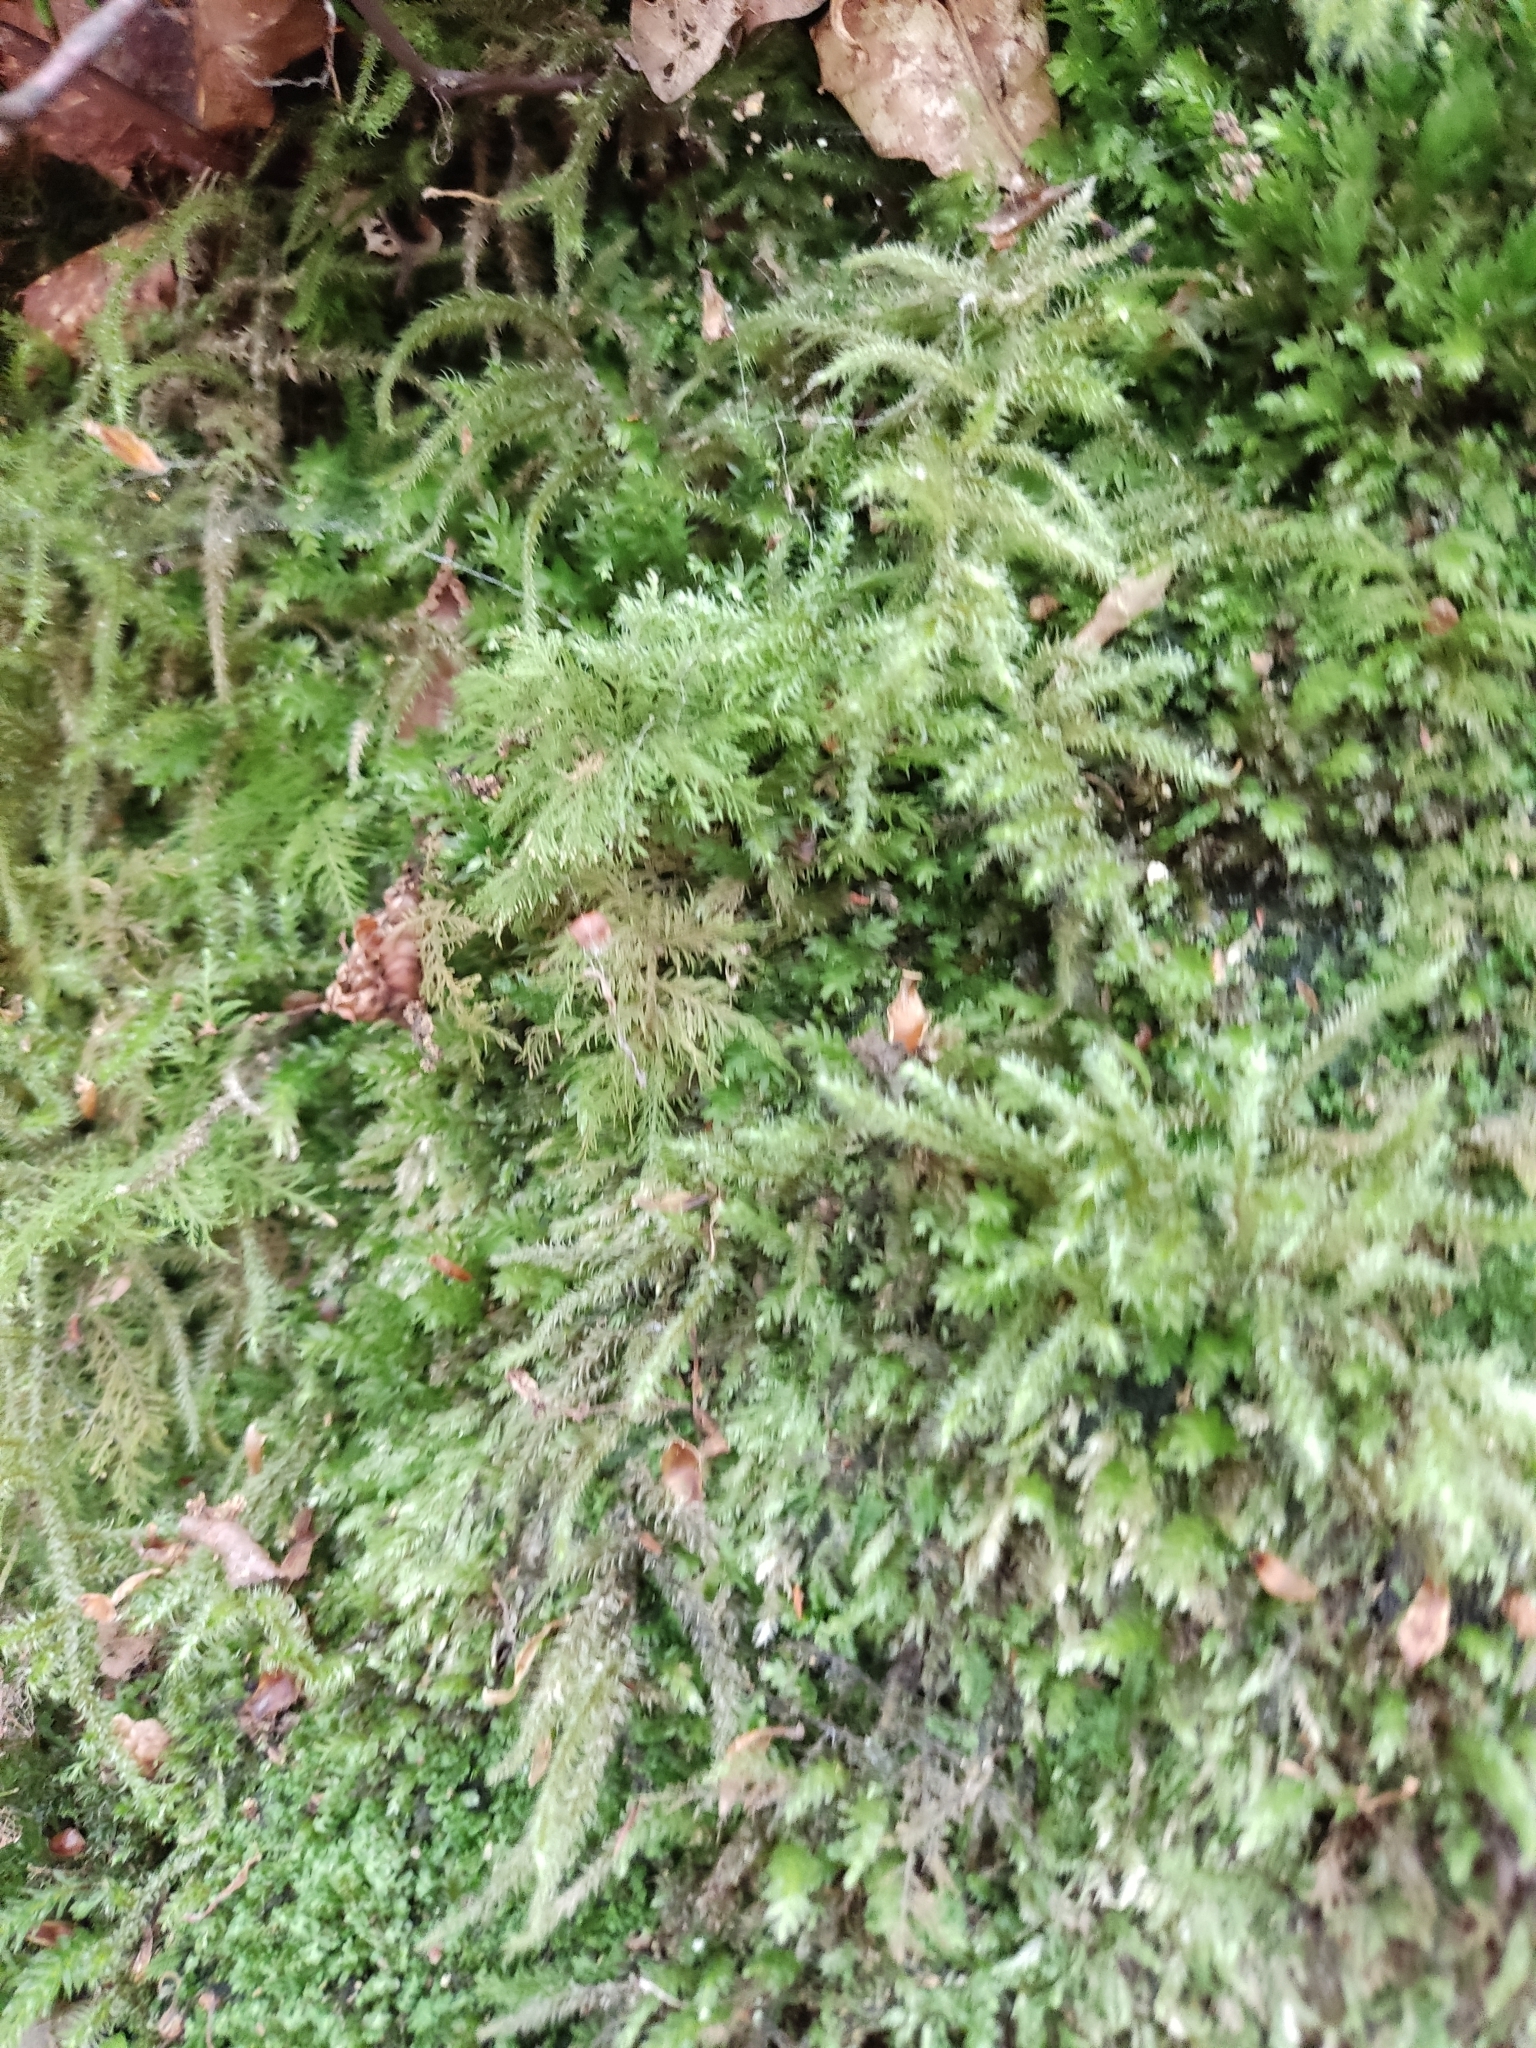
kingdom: Plantae
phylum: Bryophyta
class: Bryopsida
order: Hypnales
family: Hylocomiaceae
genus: Rhytidiadelphus
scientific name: Rhytidiadelphus loreus
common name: Lanky moss
